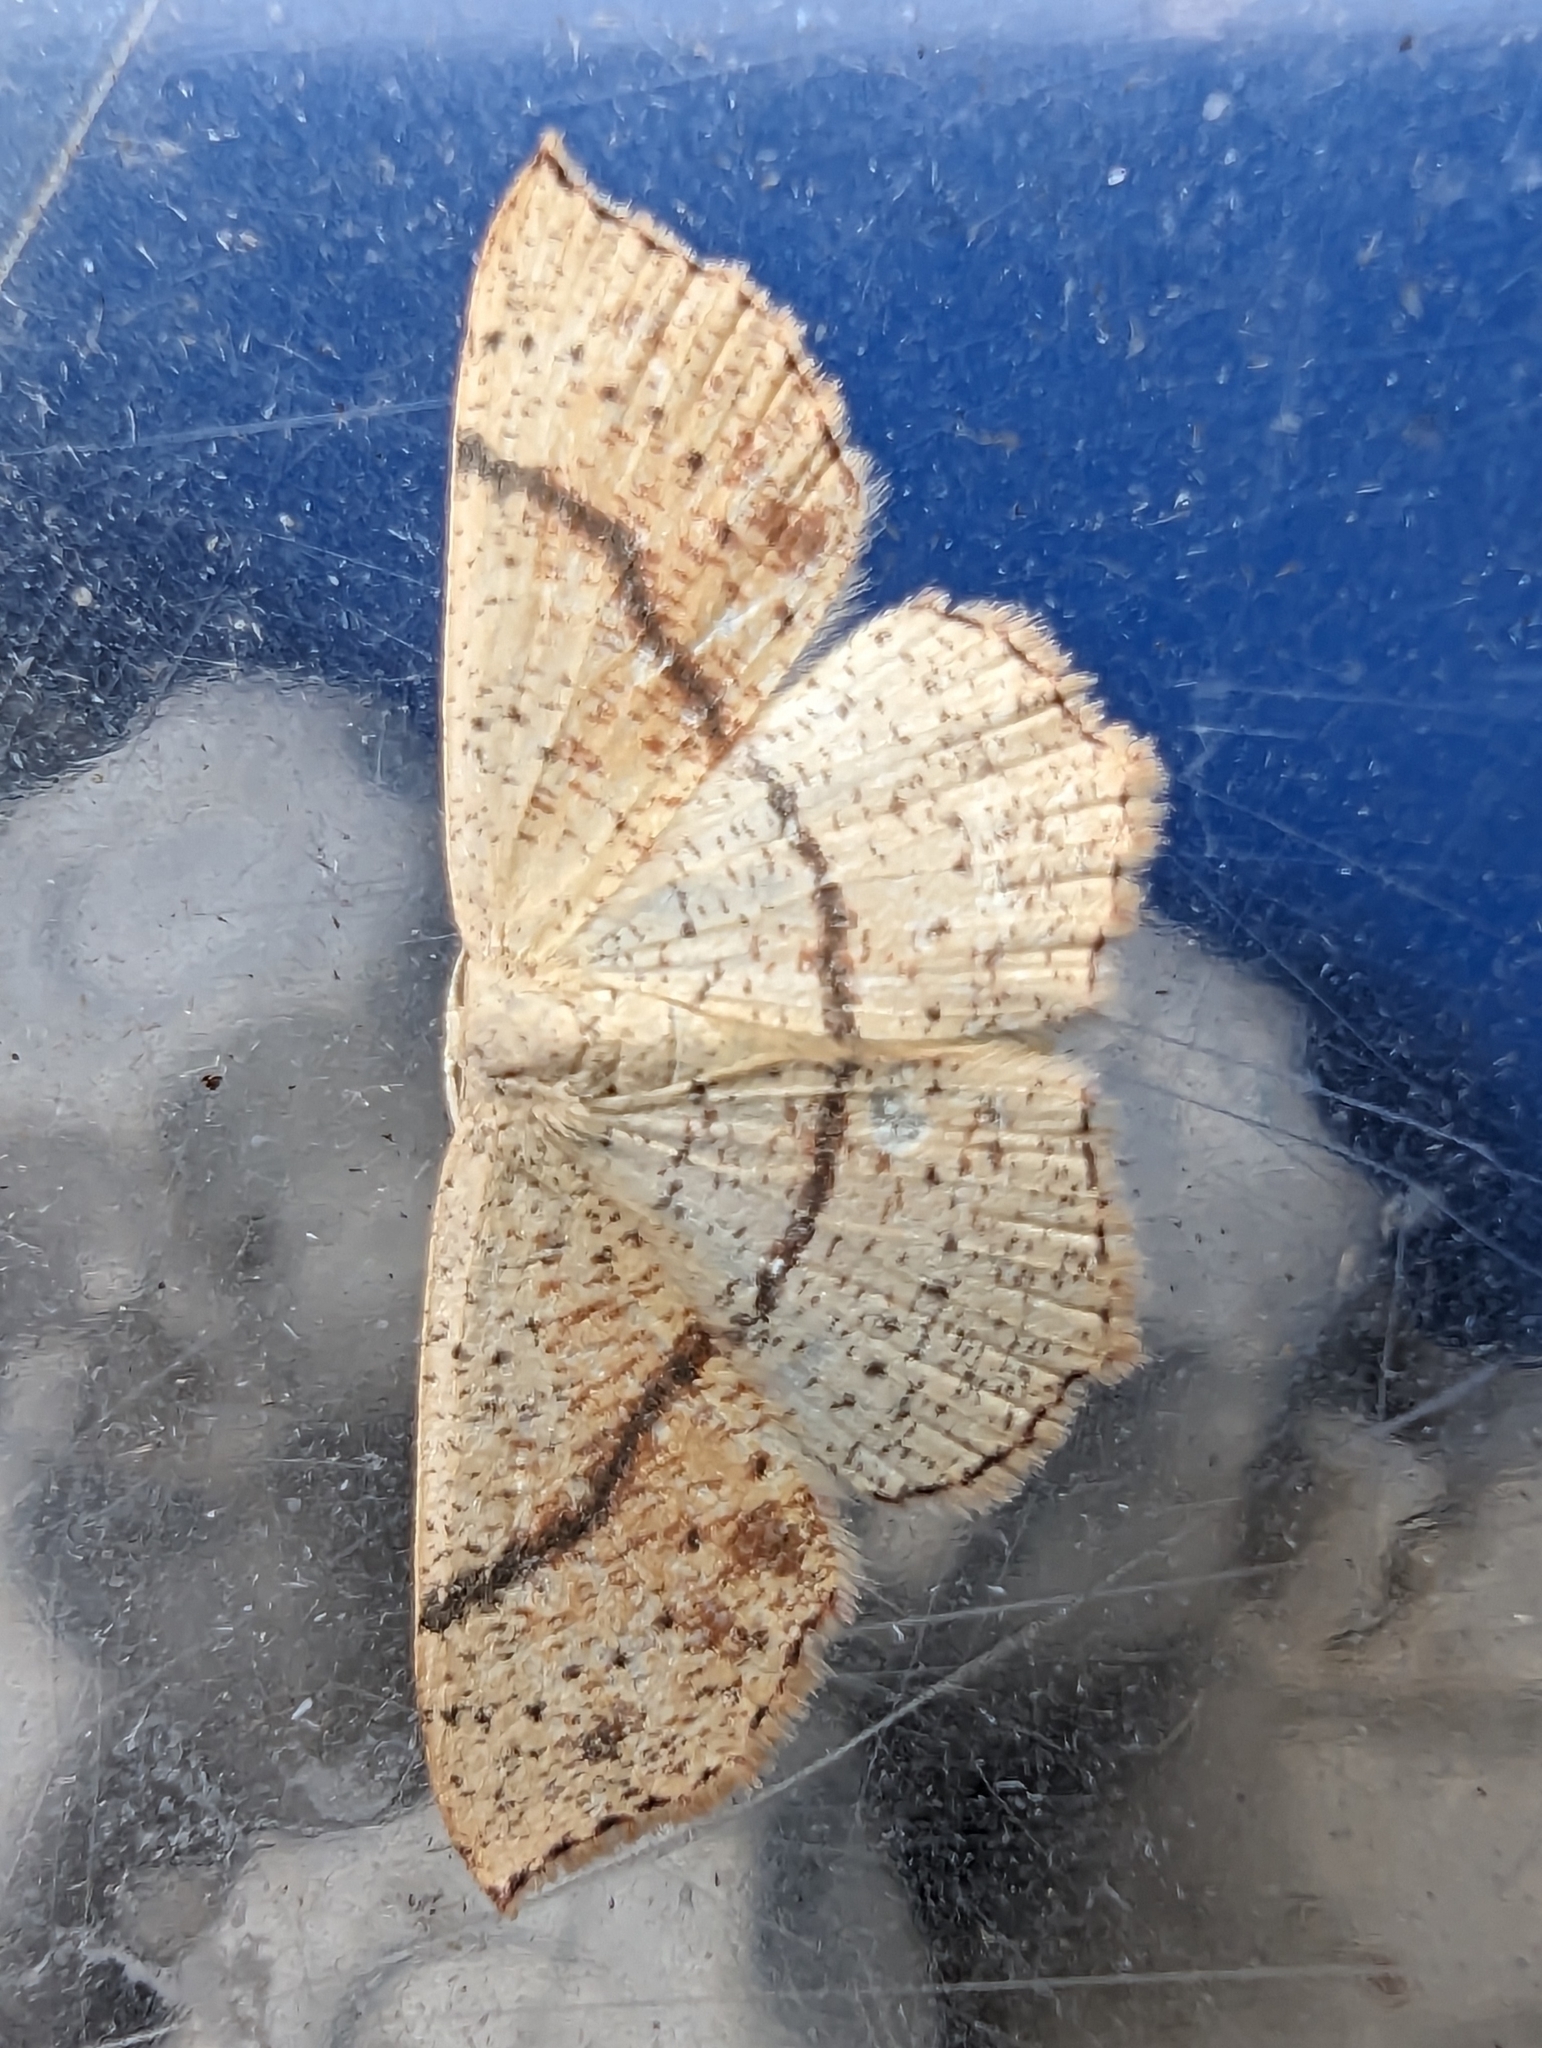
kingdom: Animalia
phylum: Arthropoda
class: Insecta
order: Lepidoptera
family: Geometridae
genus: Cyclophora
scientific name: Cyclophora punctaria
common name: Maiden's blush
